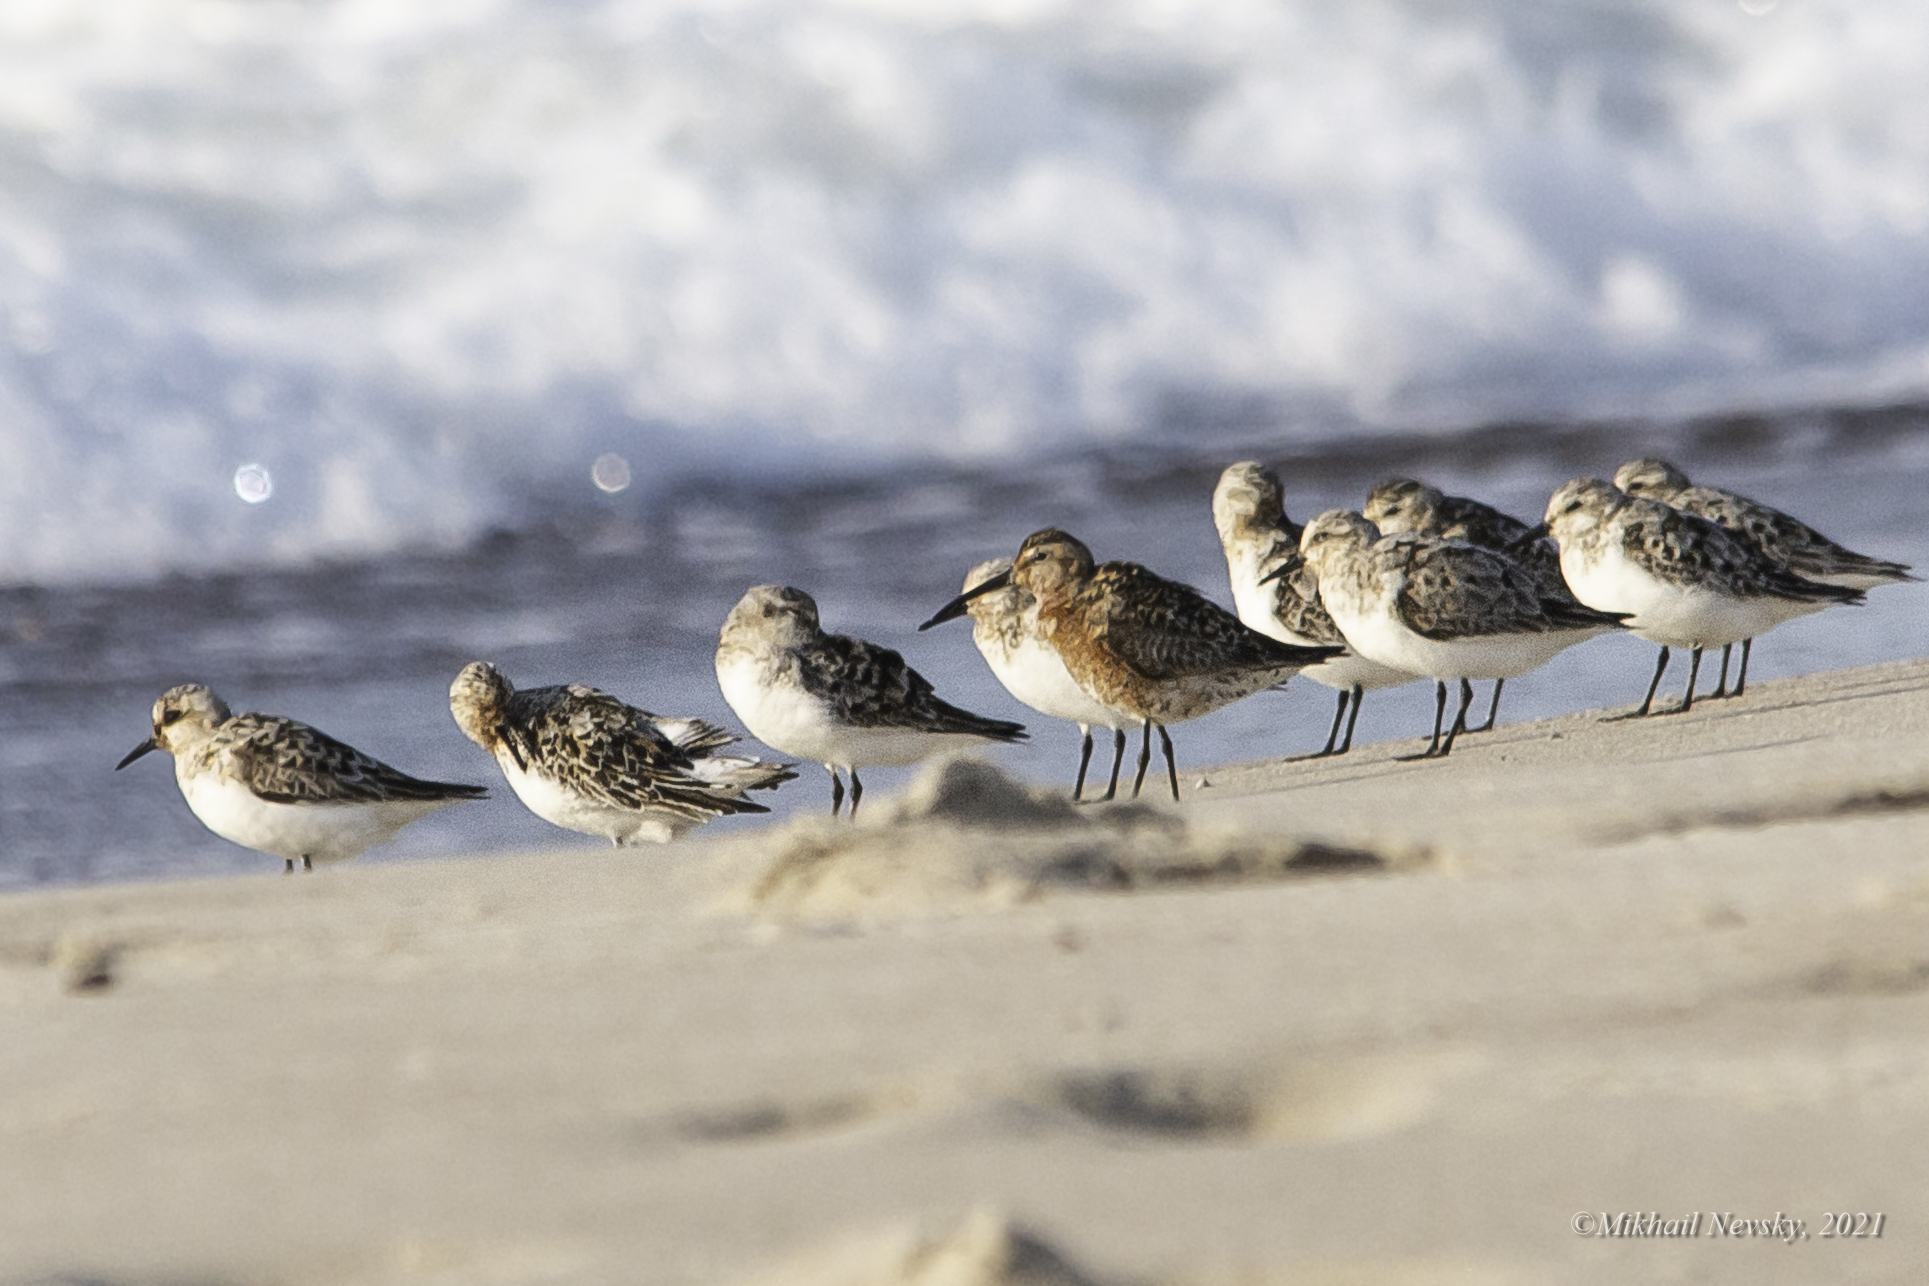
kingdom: Animalia
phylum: Chordata
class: Aves
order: Charadriiformes
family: Scolopacidae
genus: Calidris
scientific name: Calidris ferruginea
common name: Curlew sandpiper
